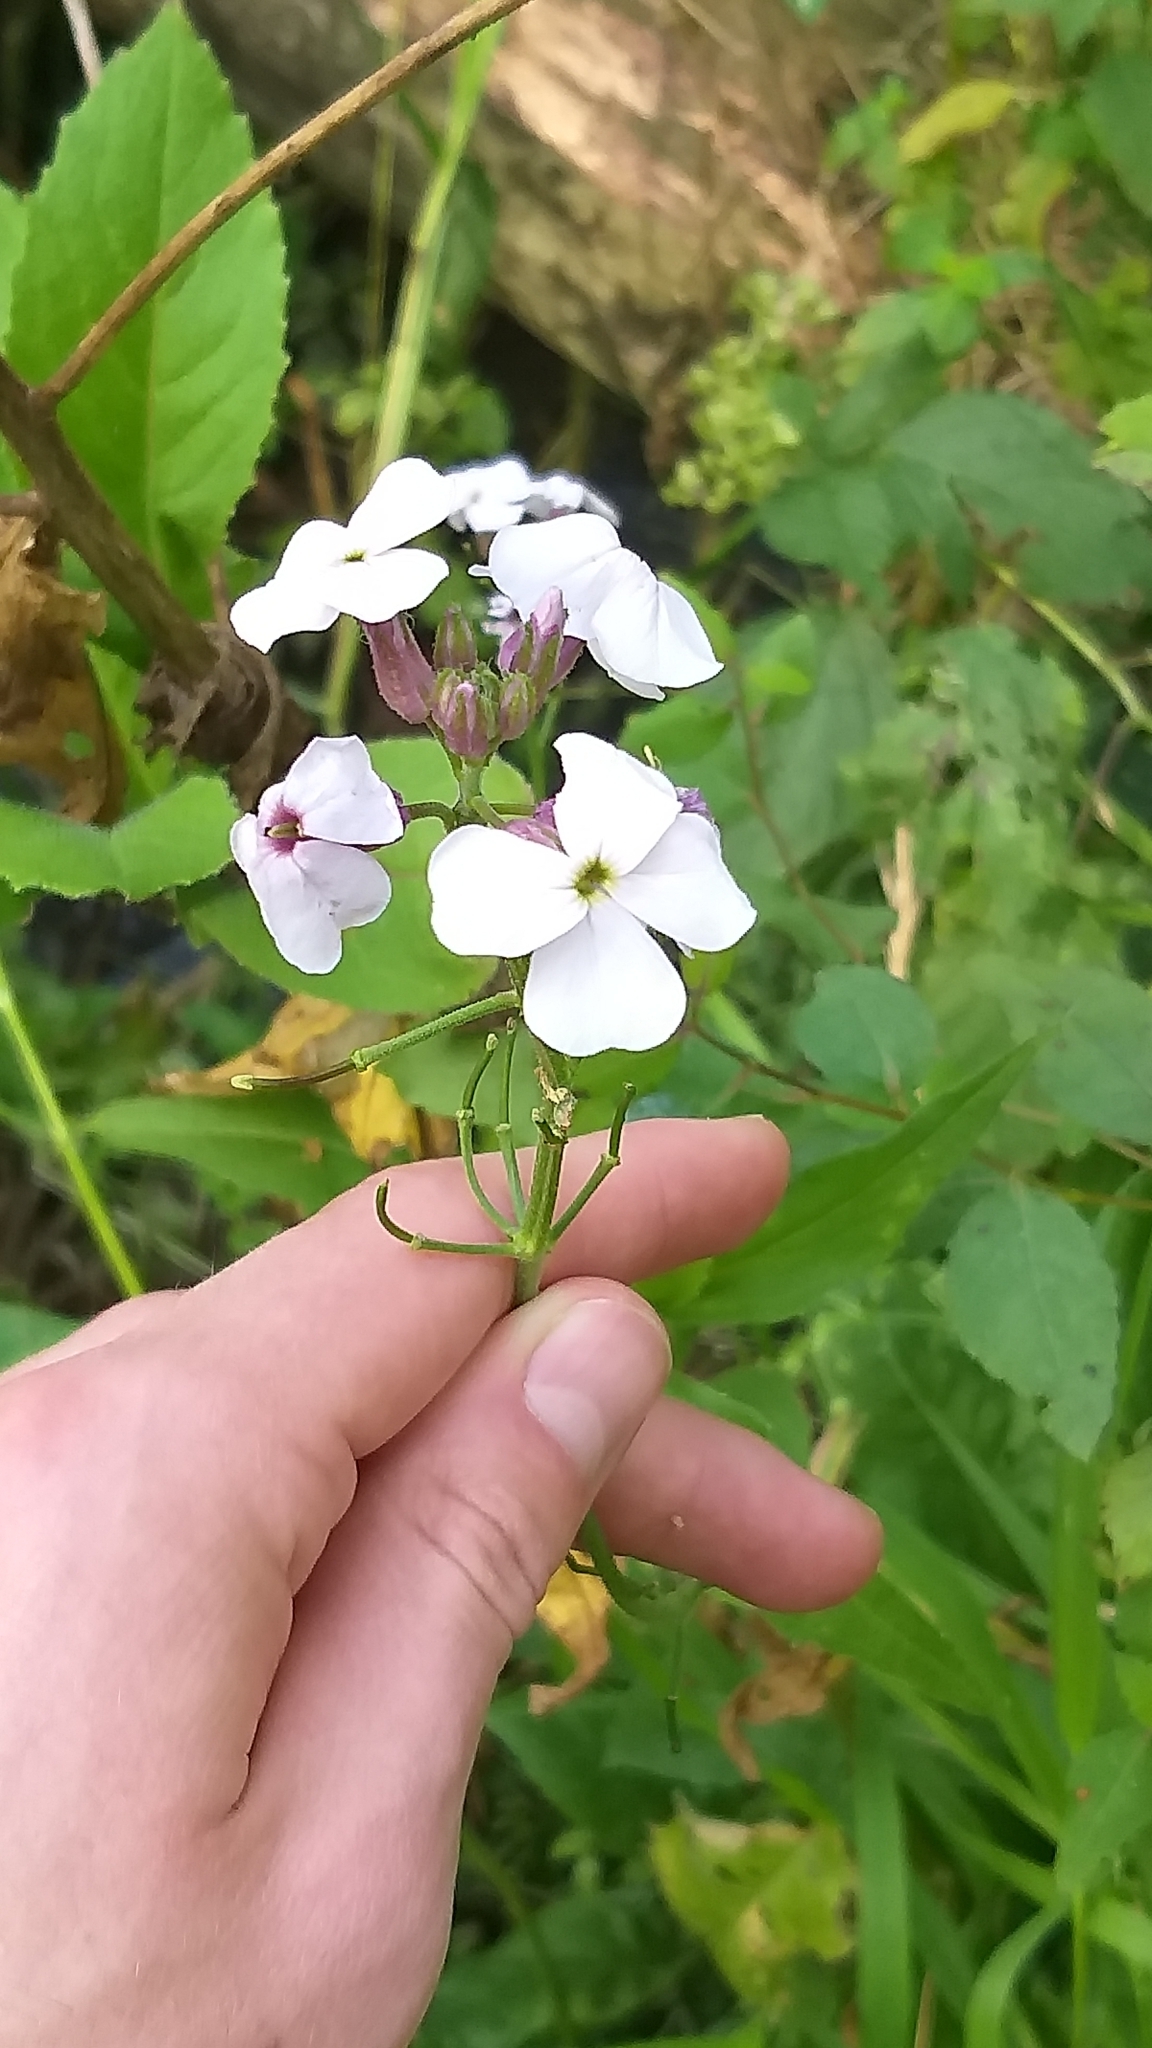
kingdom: Plantae
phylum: Tracheophyta
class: Magnoliopsida
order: Brassicales
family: Brassicaceae
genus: Hesperis
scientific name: Hesperis matronalis
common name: Dame's-violet
